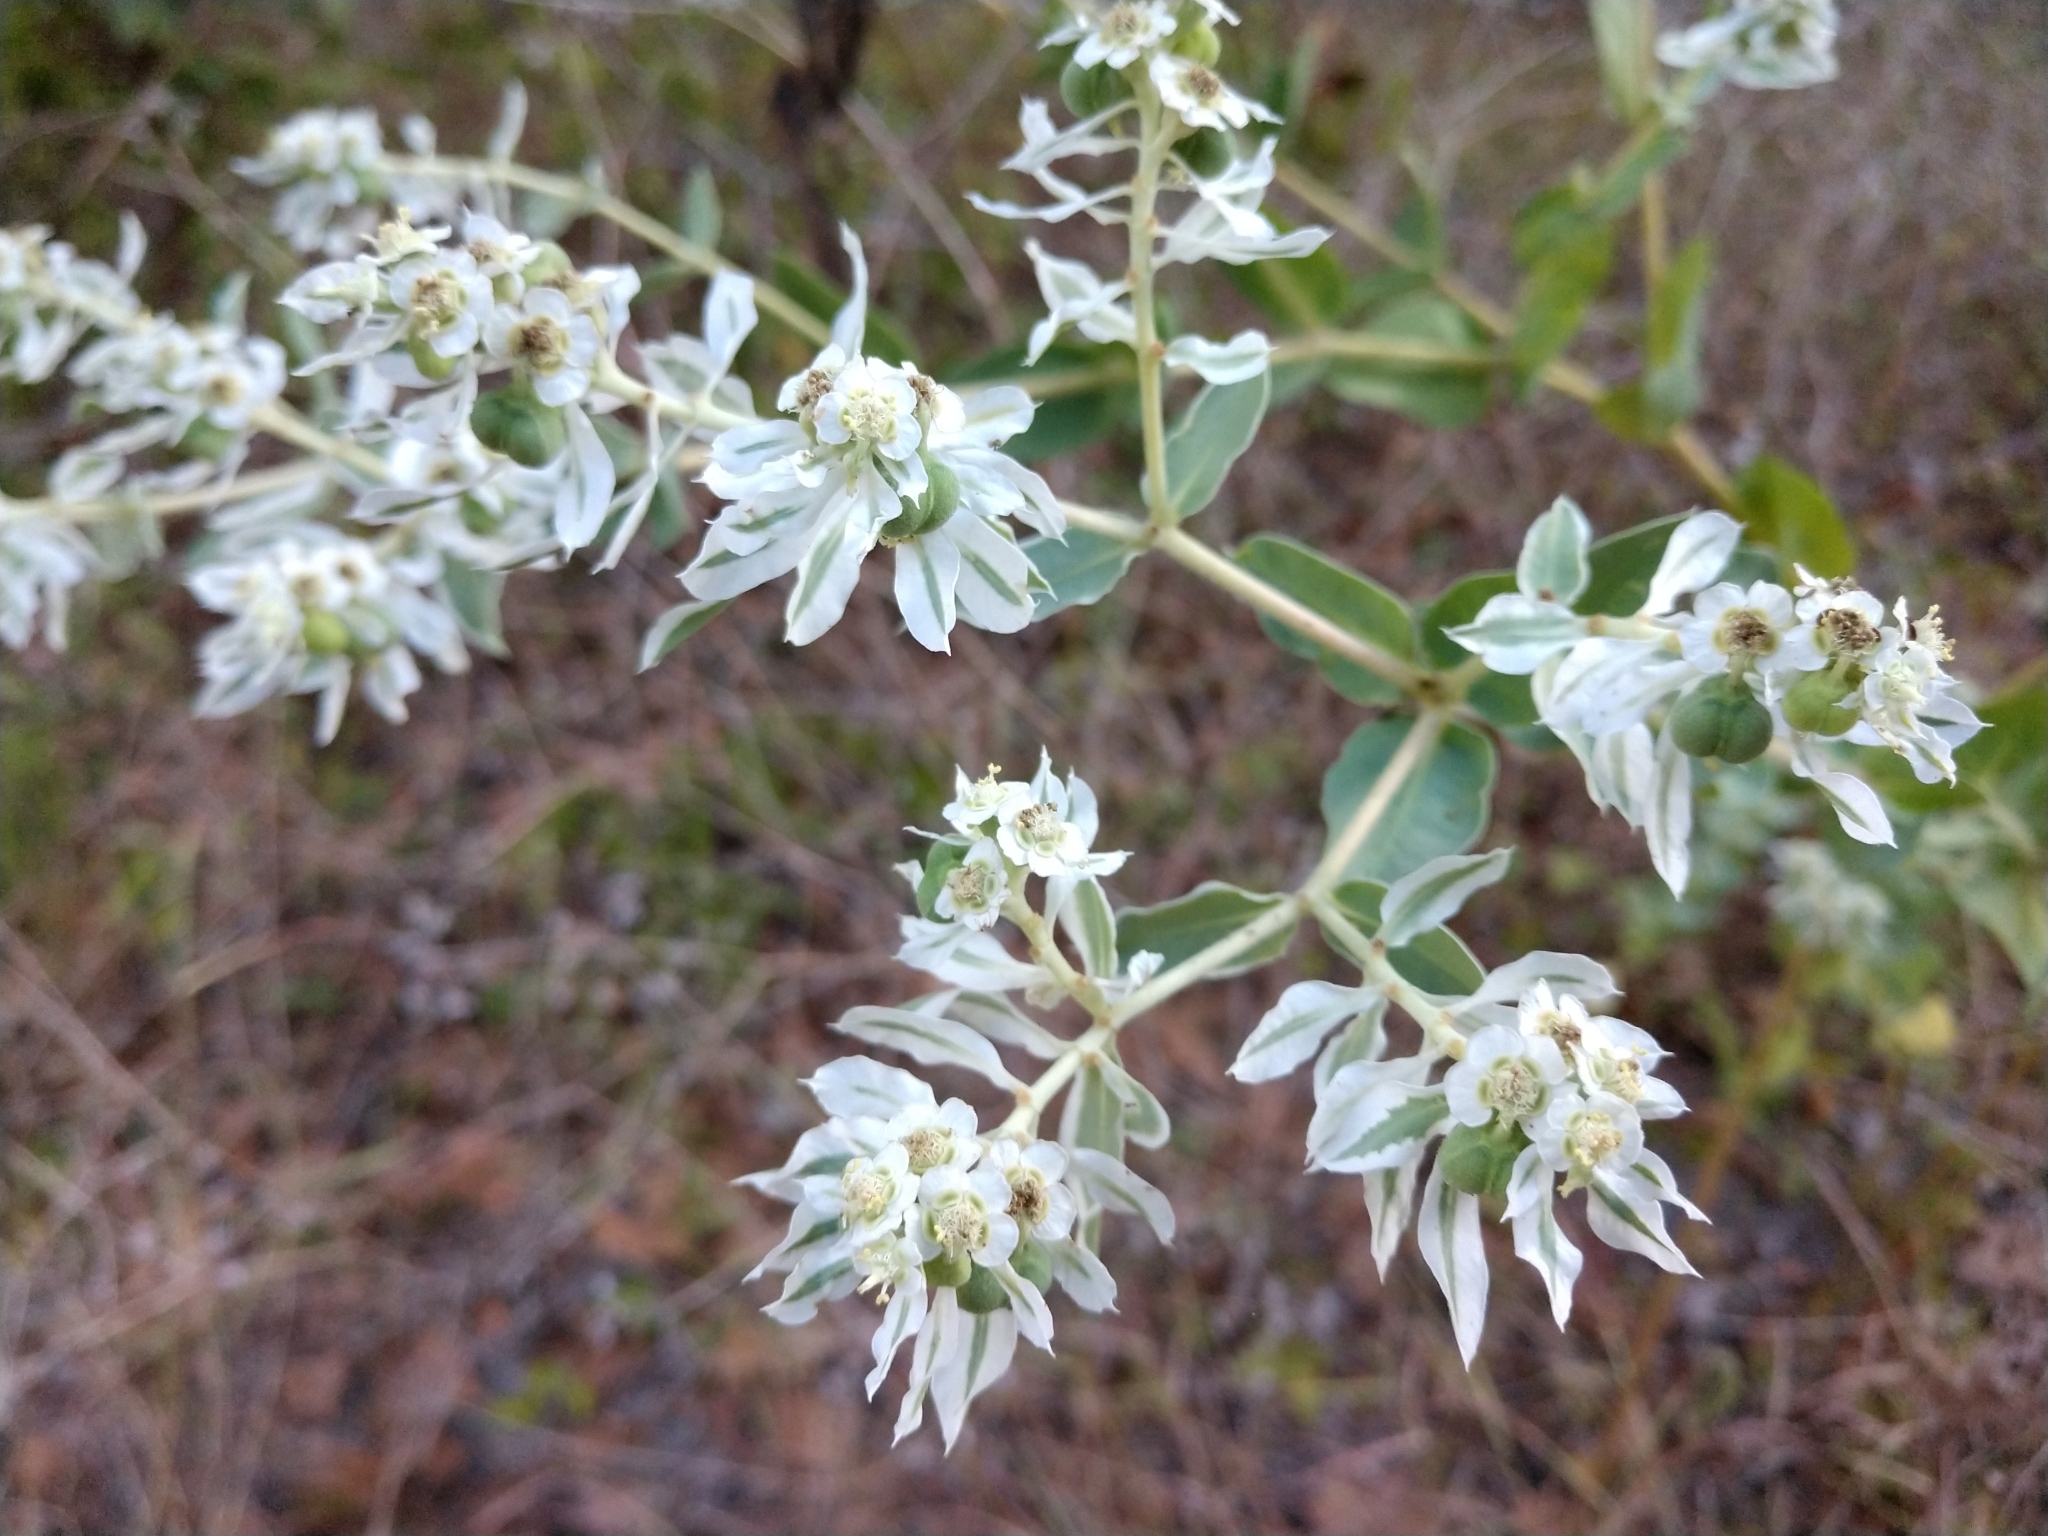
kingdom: Plantae
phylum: Tracheophyta
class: Magnoliopsida
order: Malpighiales
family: Euphorbiaceae
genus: Euphorbia
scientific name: Euphorbia marginata
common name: Ghostweed
